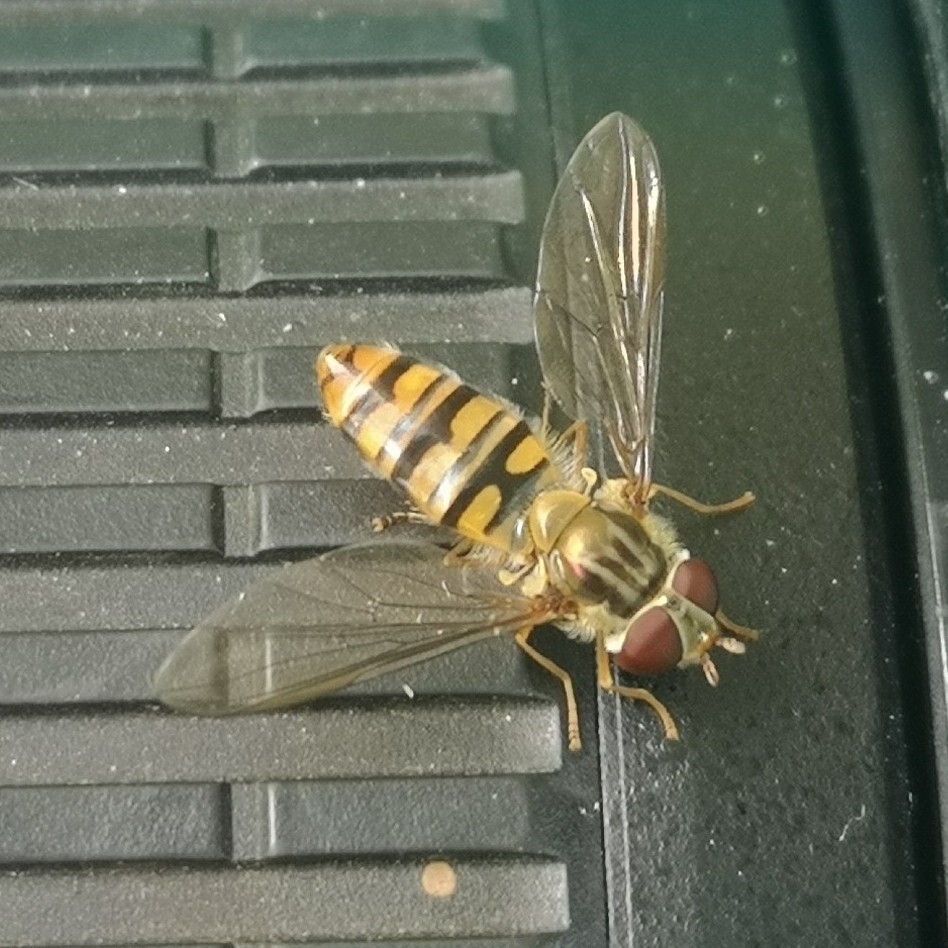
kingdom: Animalia
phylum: Arthropoda
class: Insecta
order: Diptera
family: Syrphidae
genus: Episyrphus
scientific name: Episyrphus balteatus
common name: Marmalade hoverfly
